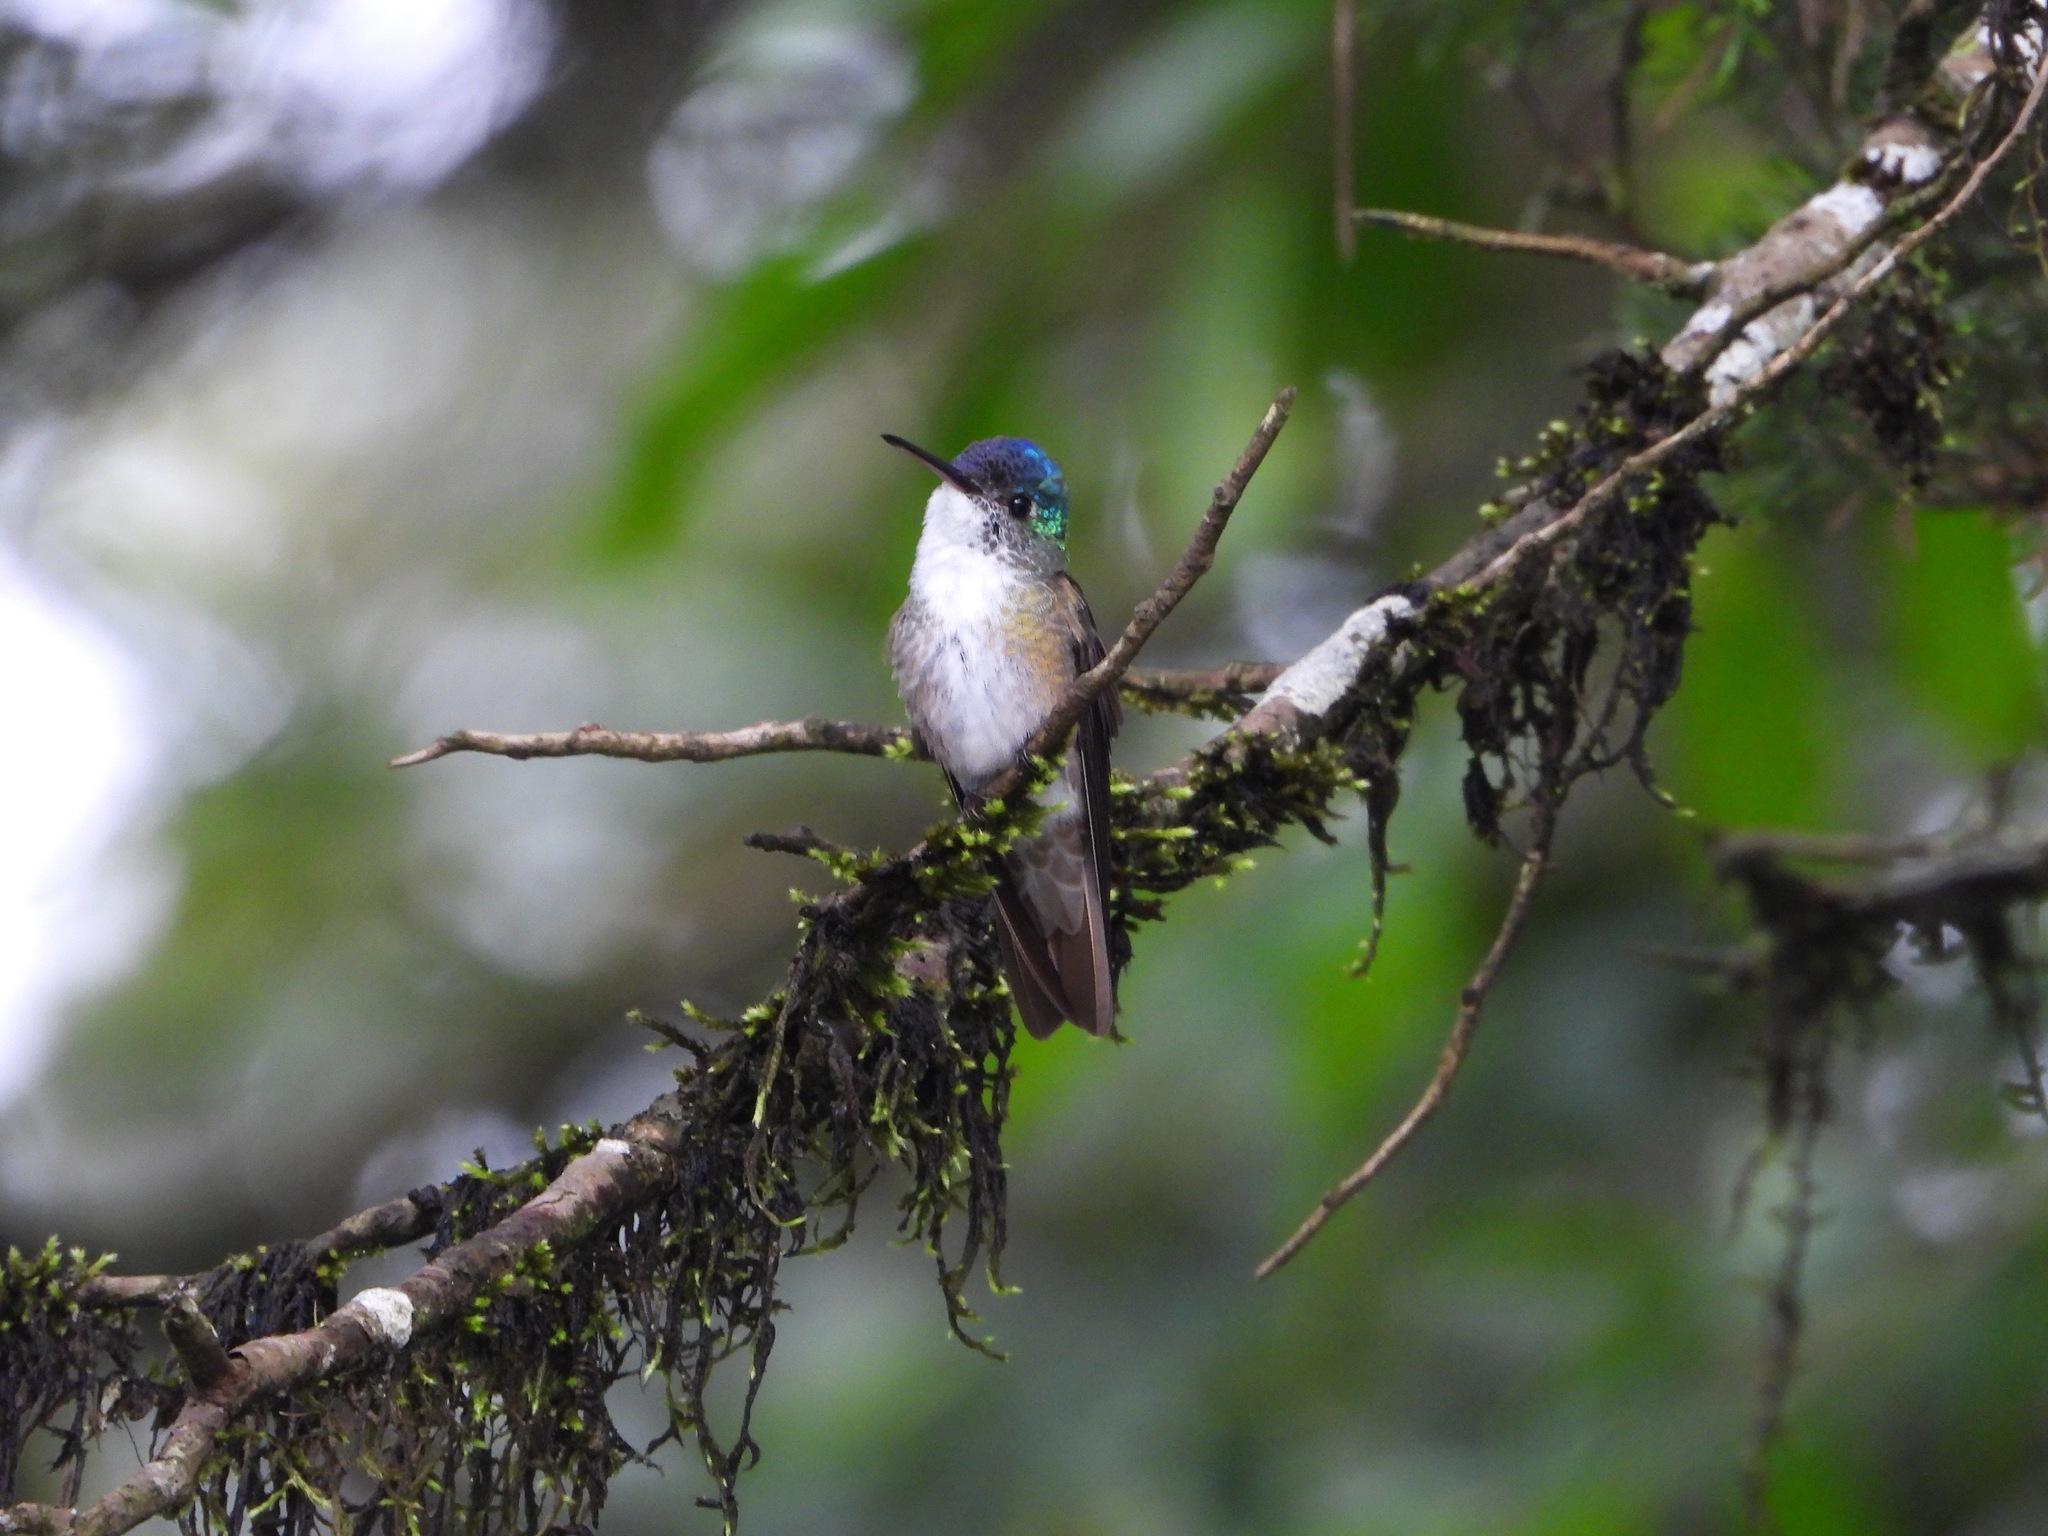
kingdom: Animalia
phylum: Chordata
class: Aves
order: Apodiformes
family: Trochilidae
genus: Saucerottia
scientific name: Saucerottia cyanocephala
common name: Azure-crowned hummingbird
